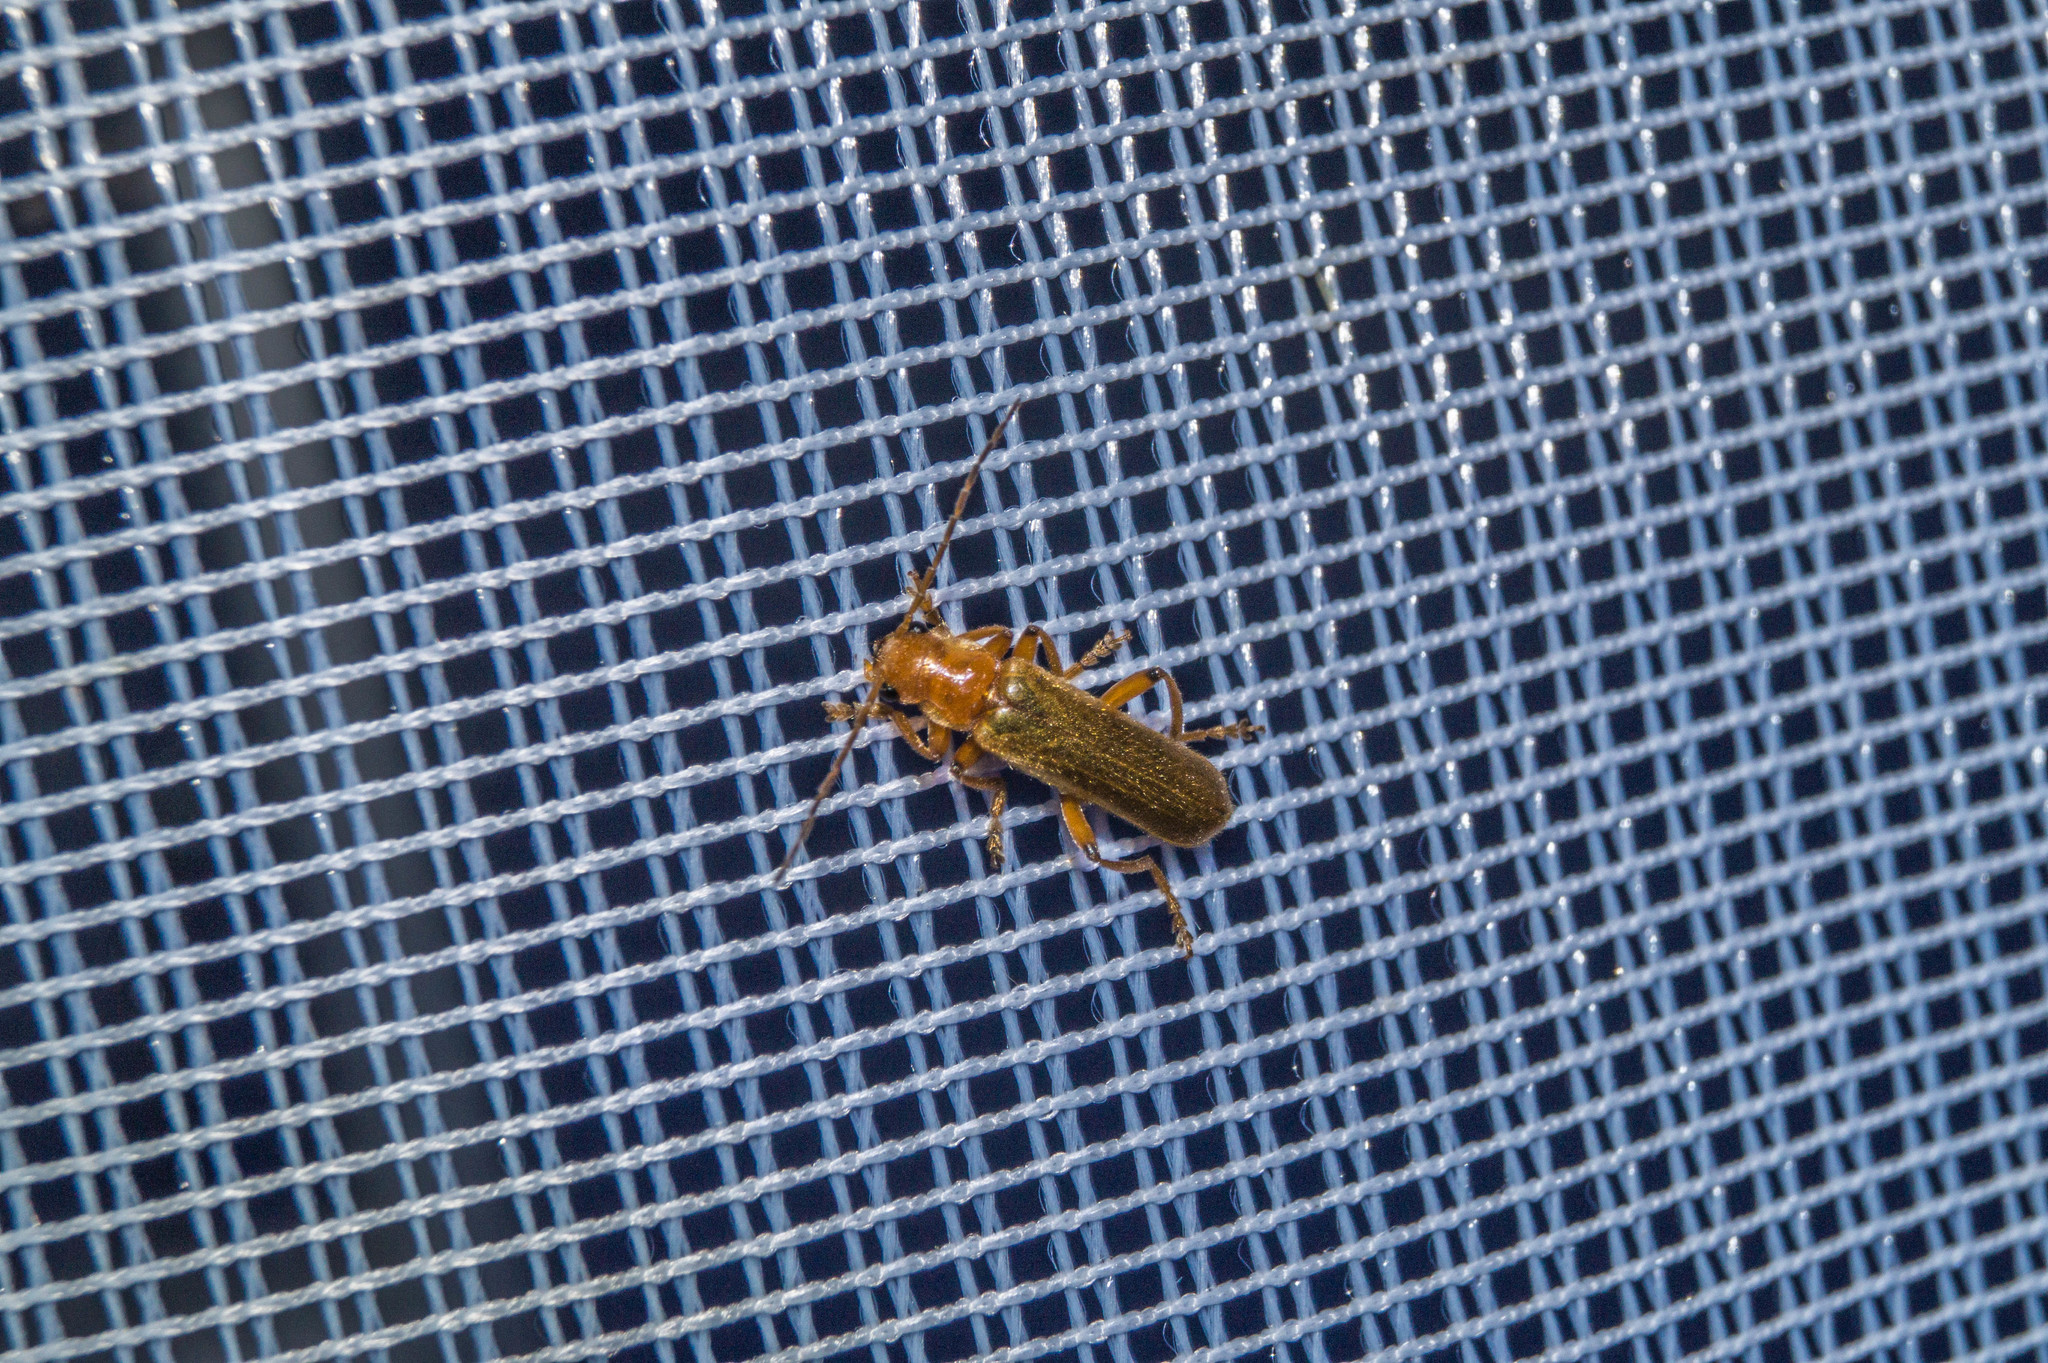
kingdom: Animalia
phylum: Arthropoda
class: Insecta
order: Coleoptera
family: Cantharidae
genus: Cantharis
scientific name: Cantharis cryptica
